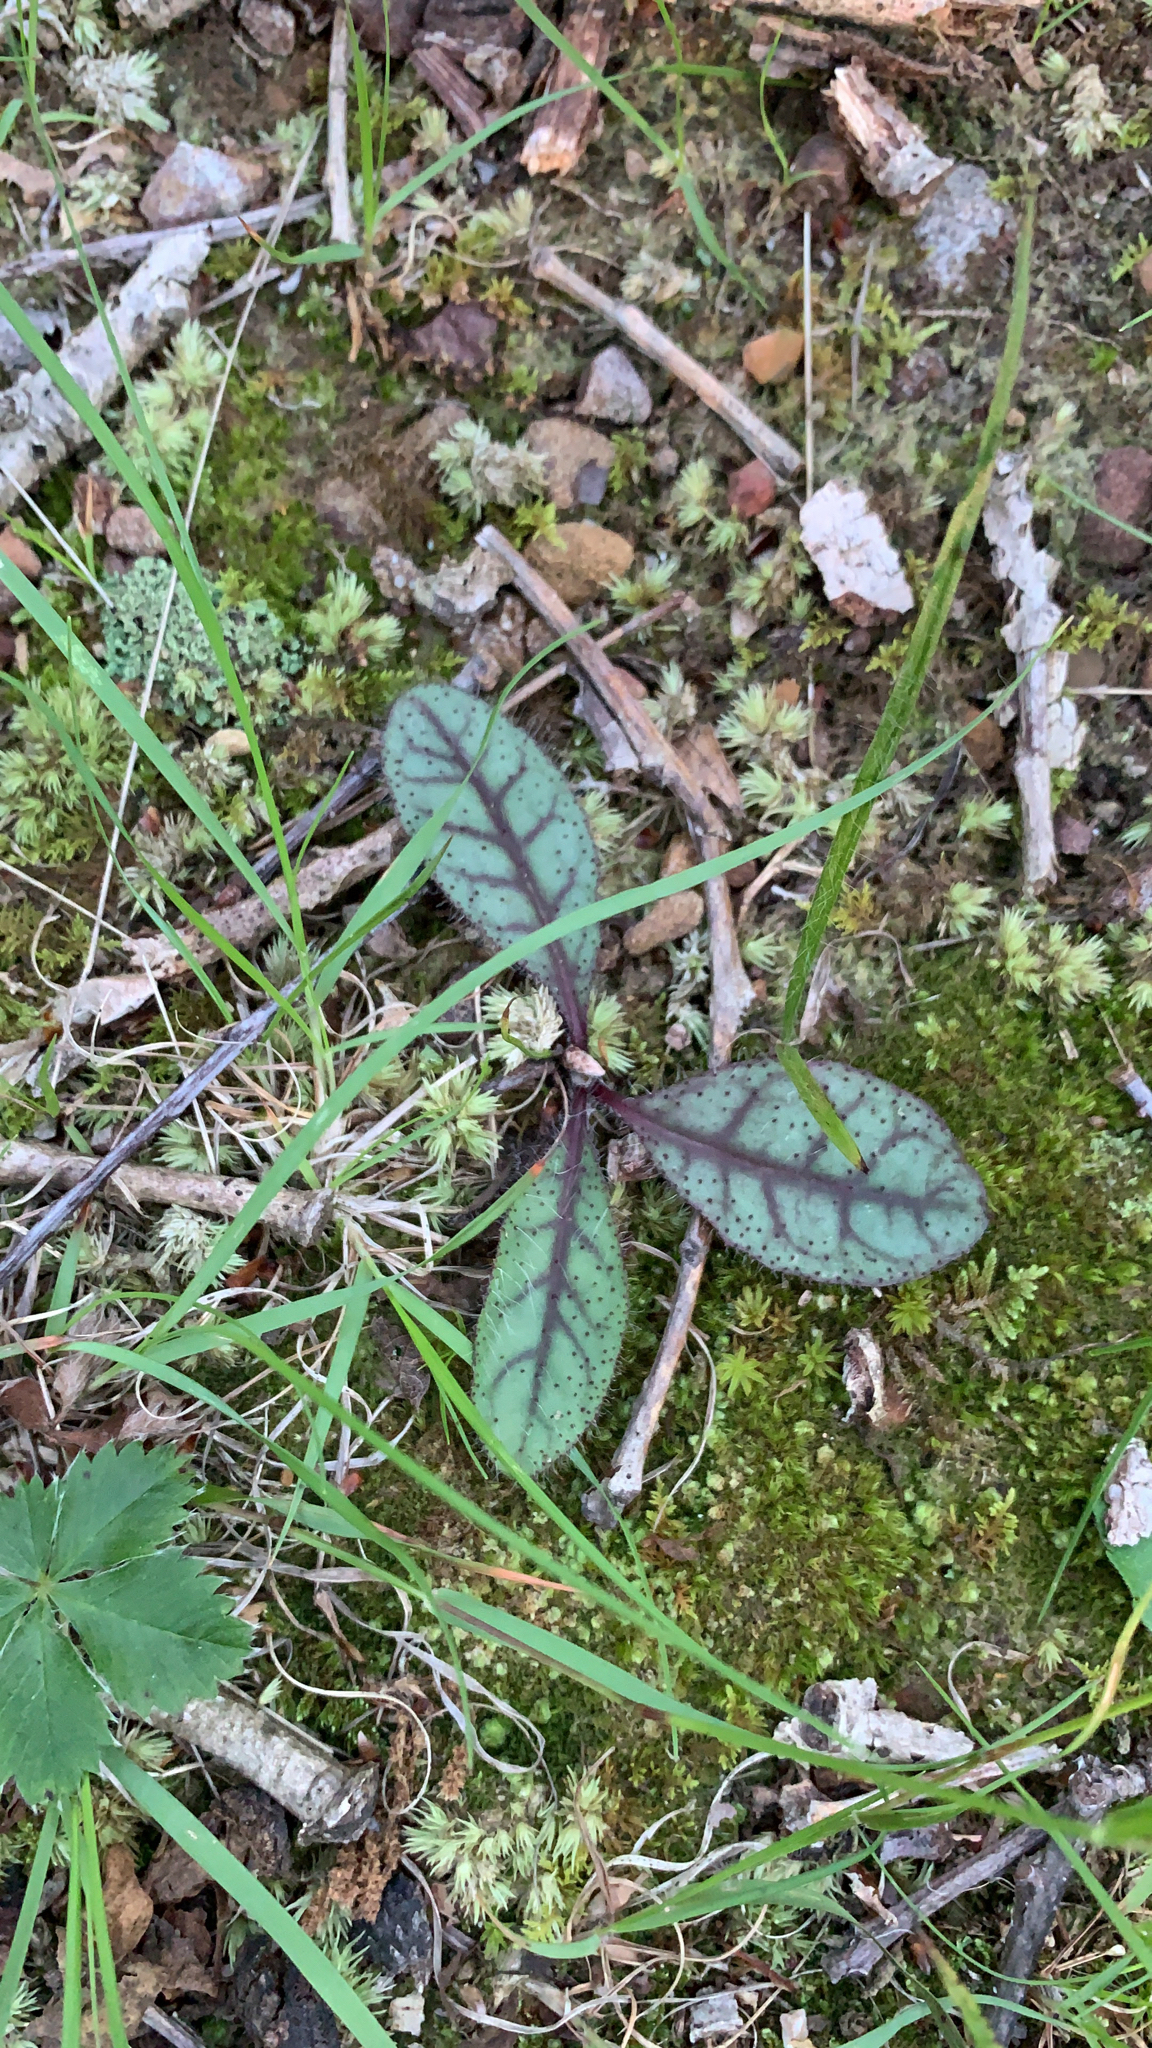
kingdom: Plantae
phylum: Tracheophyta
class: Magnoliopsida
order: Asterales
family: Asteraceae
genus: Hieracium
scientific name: Hieracium venosum
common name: Rattlesnake hawkweed
